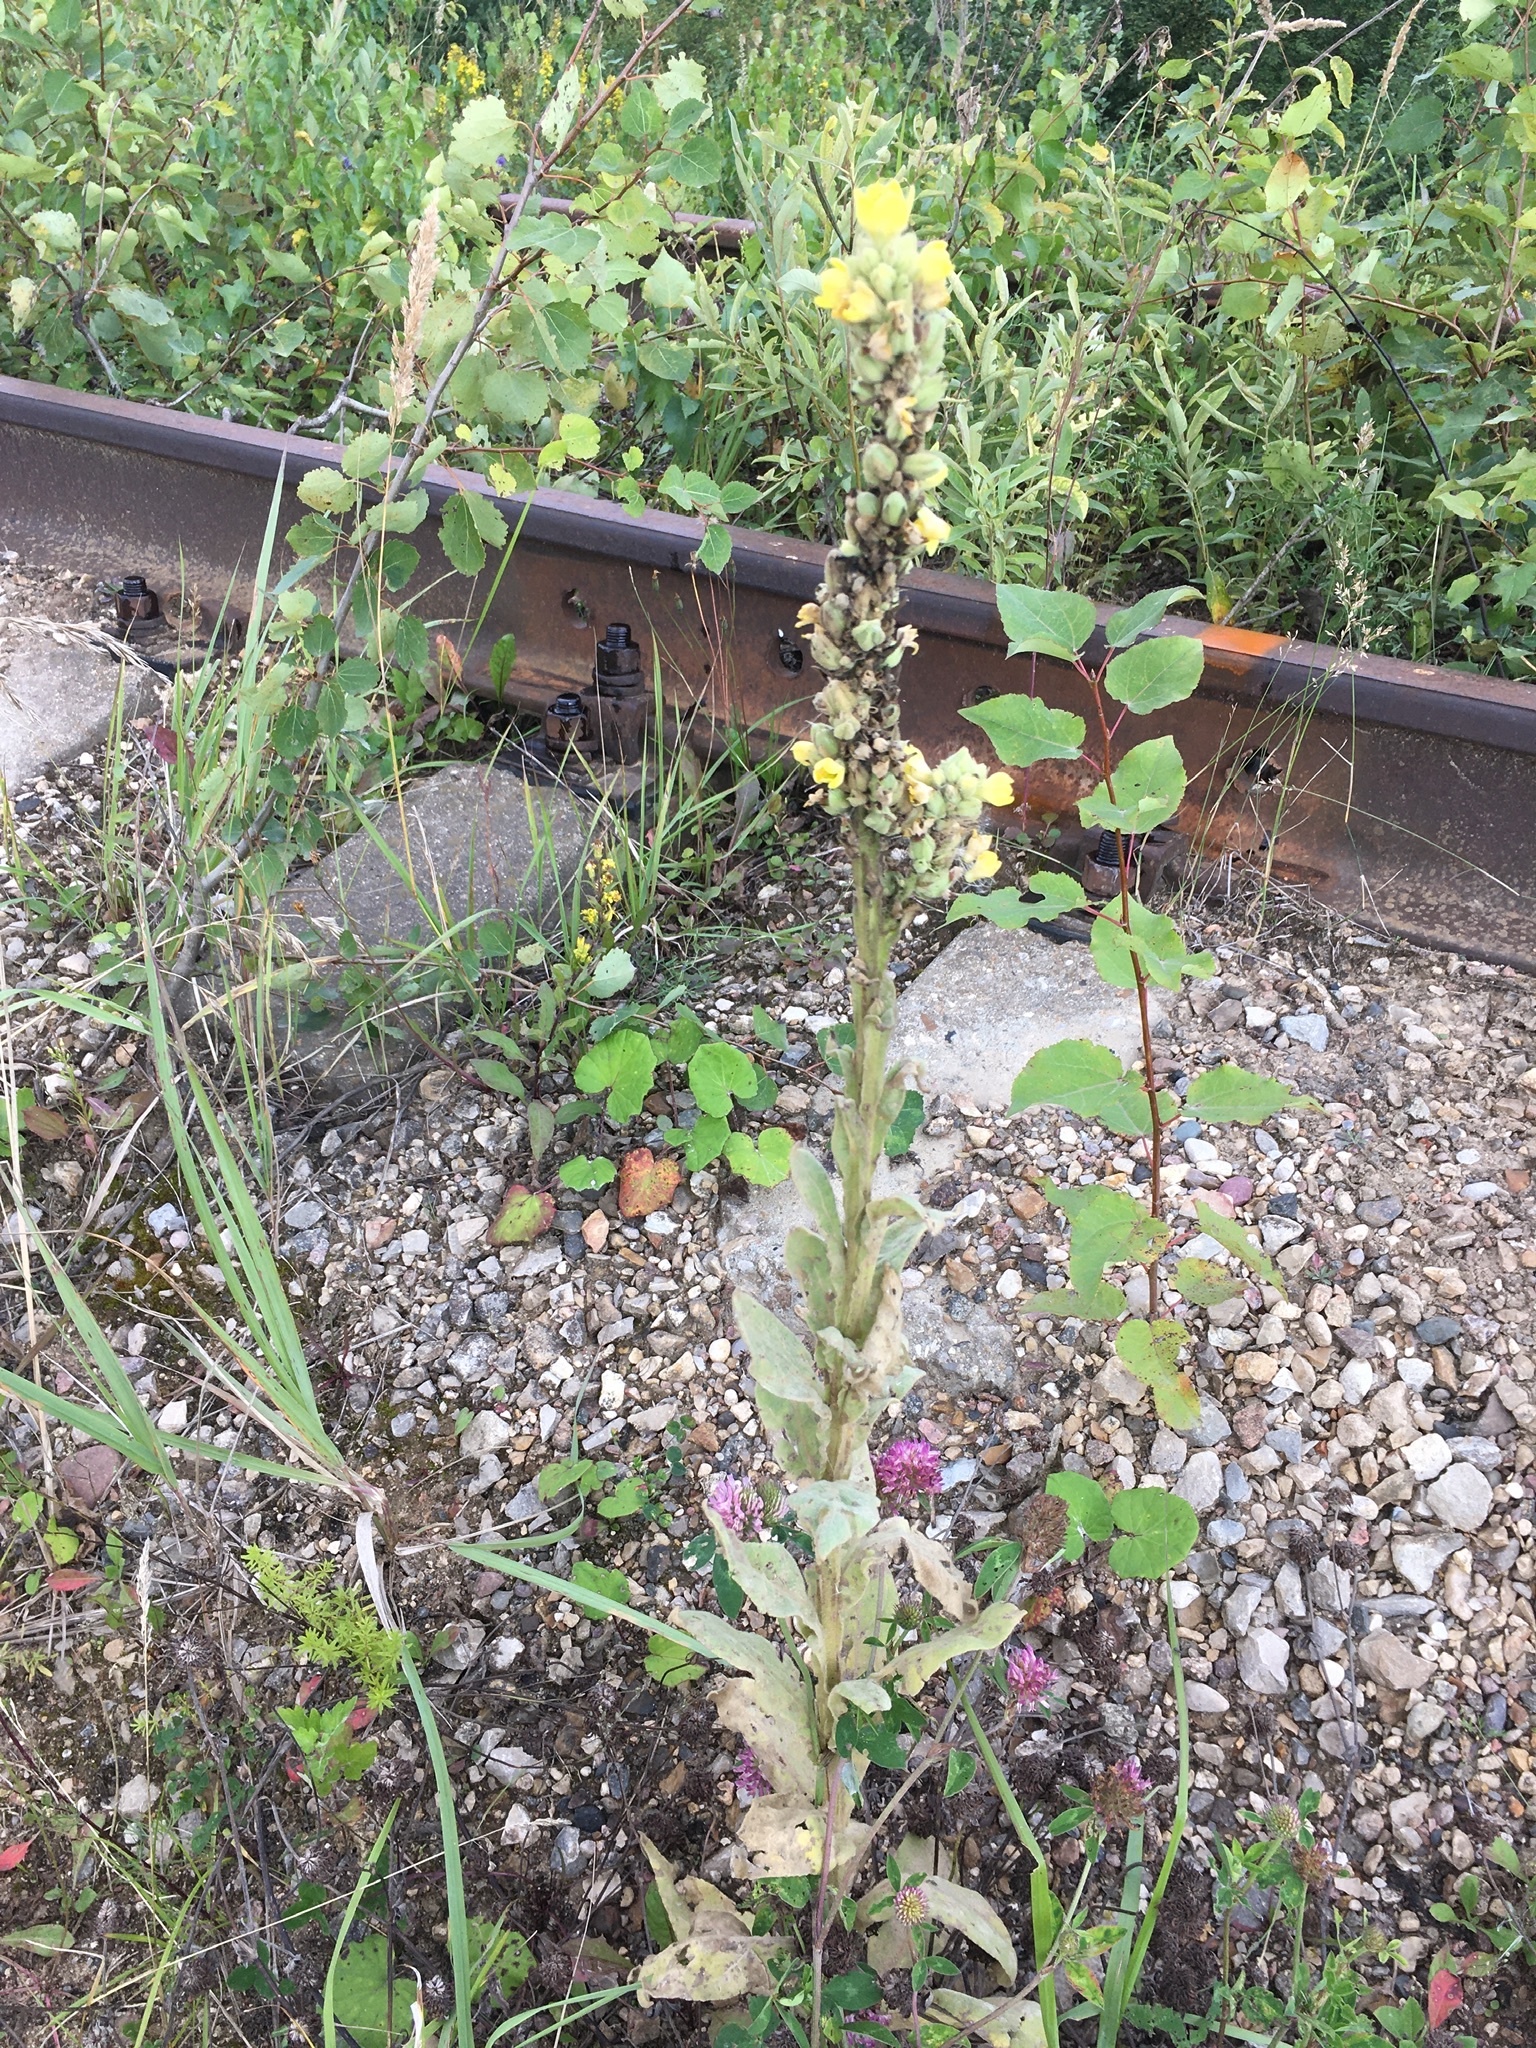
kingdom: Plantae
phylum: Tracheophyta
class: Magnoliopsida
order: Lamiales
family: Scrophulariaceae
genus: Verbascum
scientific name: Verbascum thapsus
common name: Common mullein
